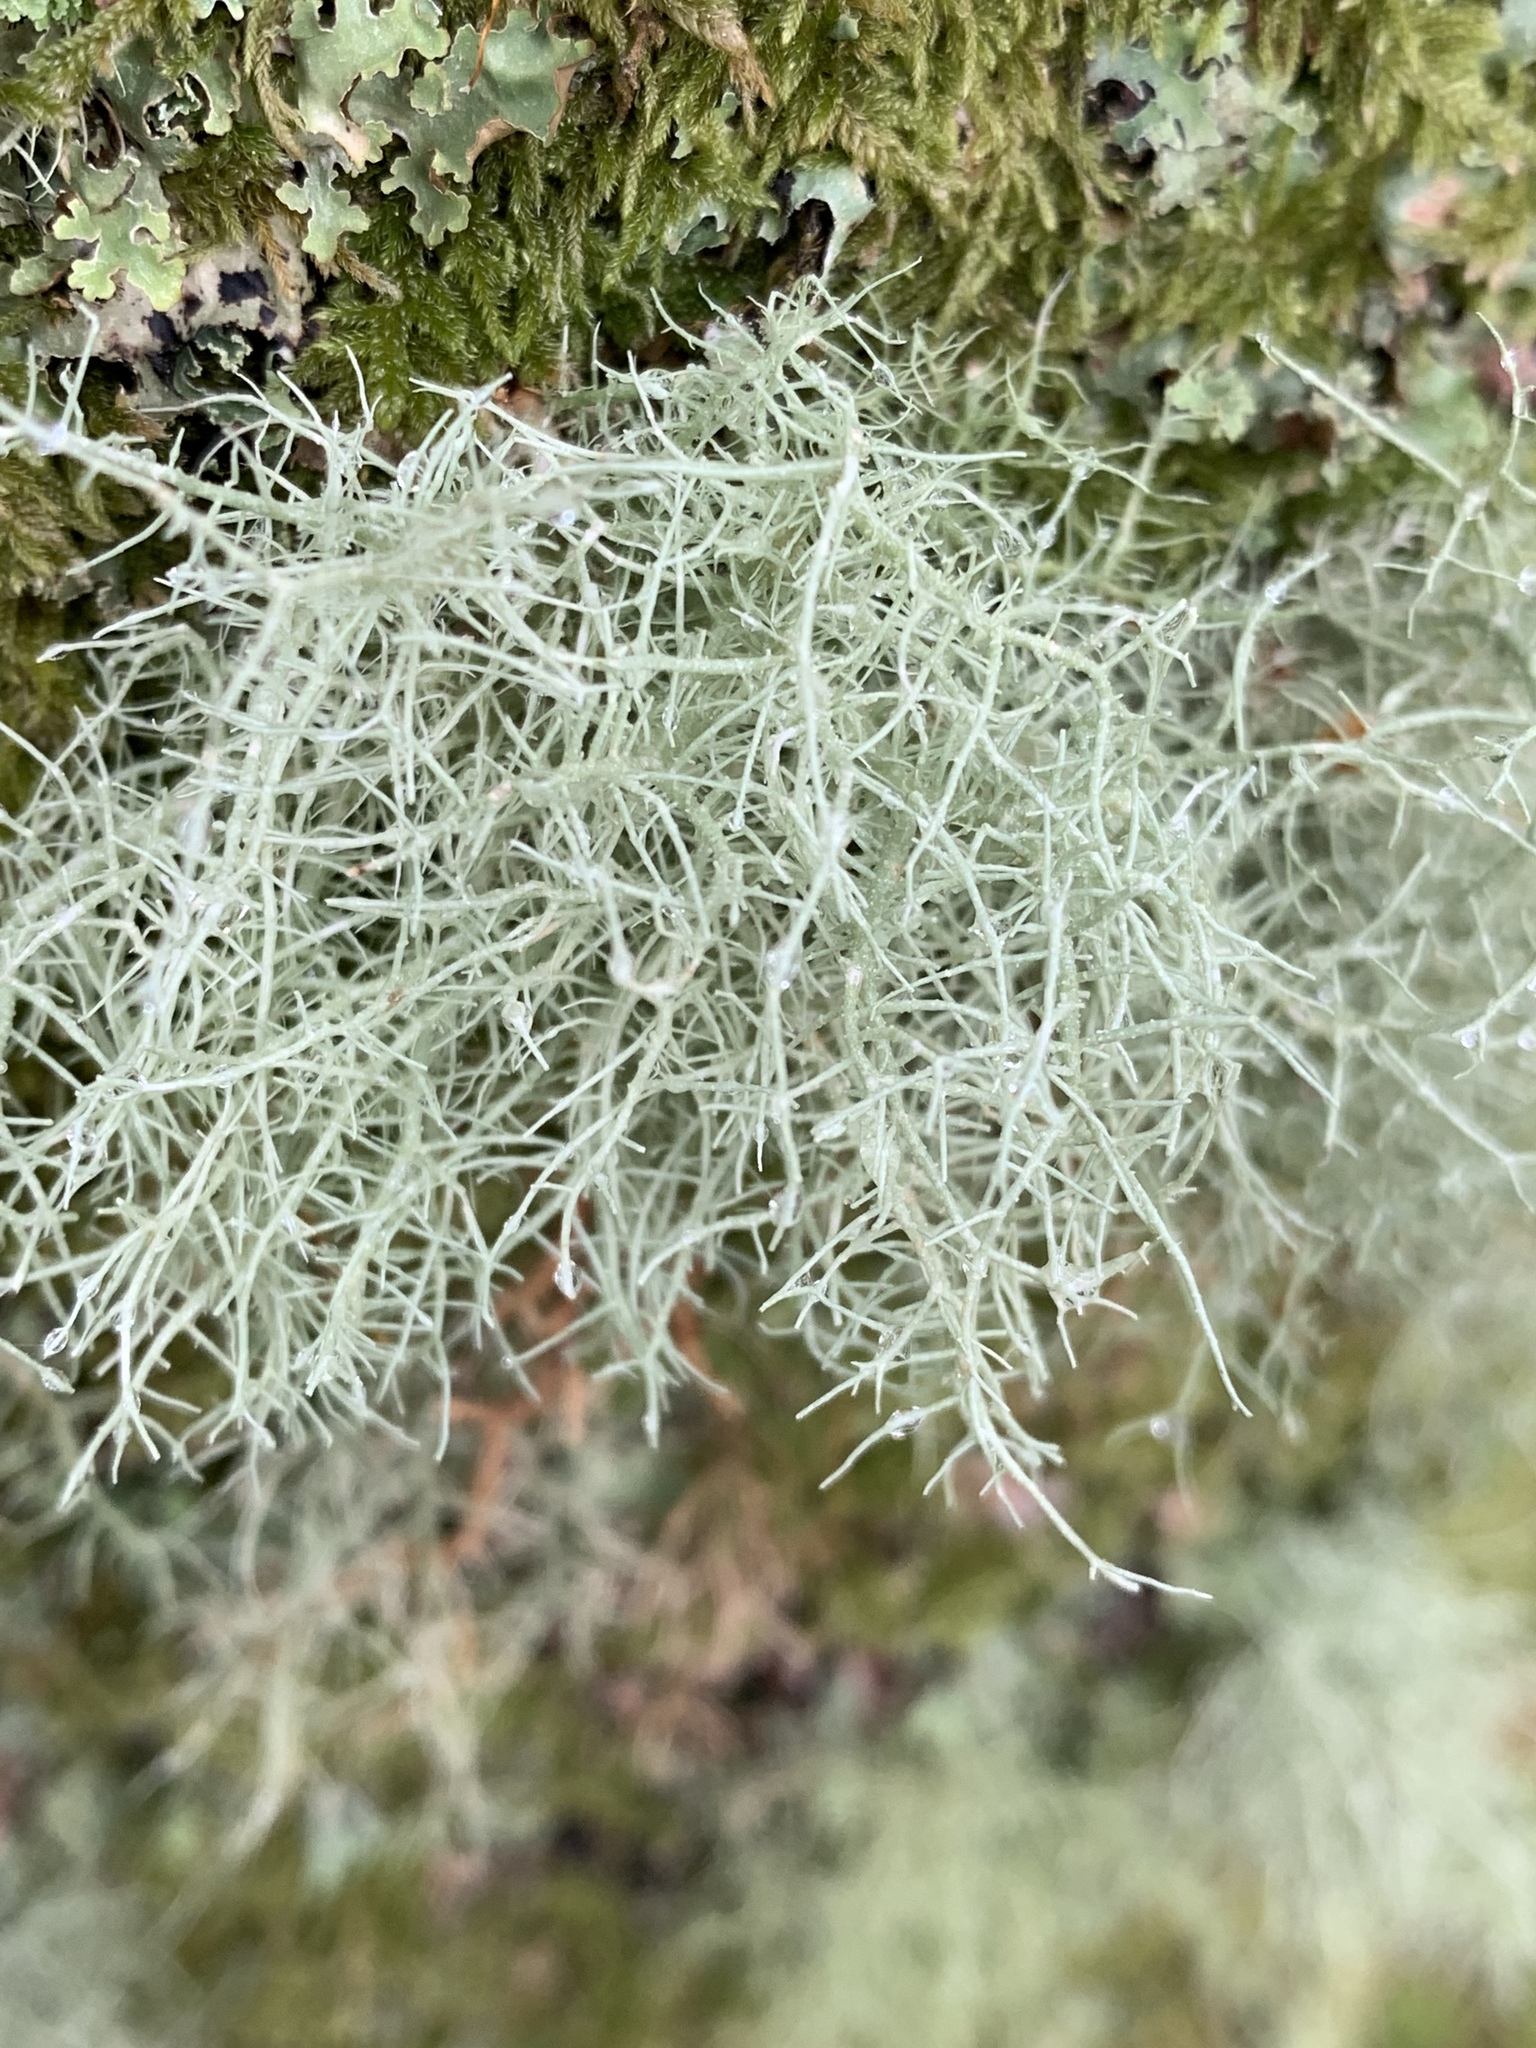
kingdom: Fungi
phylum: Ascomycota
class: Lecanoromycetes
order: Lecanorales
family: Parmeliaceae
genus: Usnea
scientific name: Usnea
